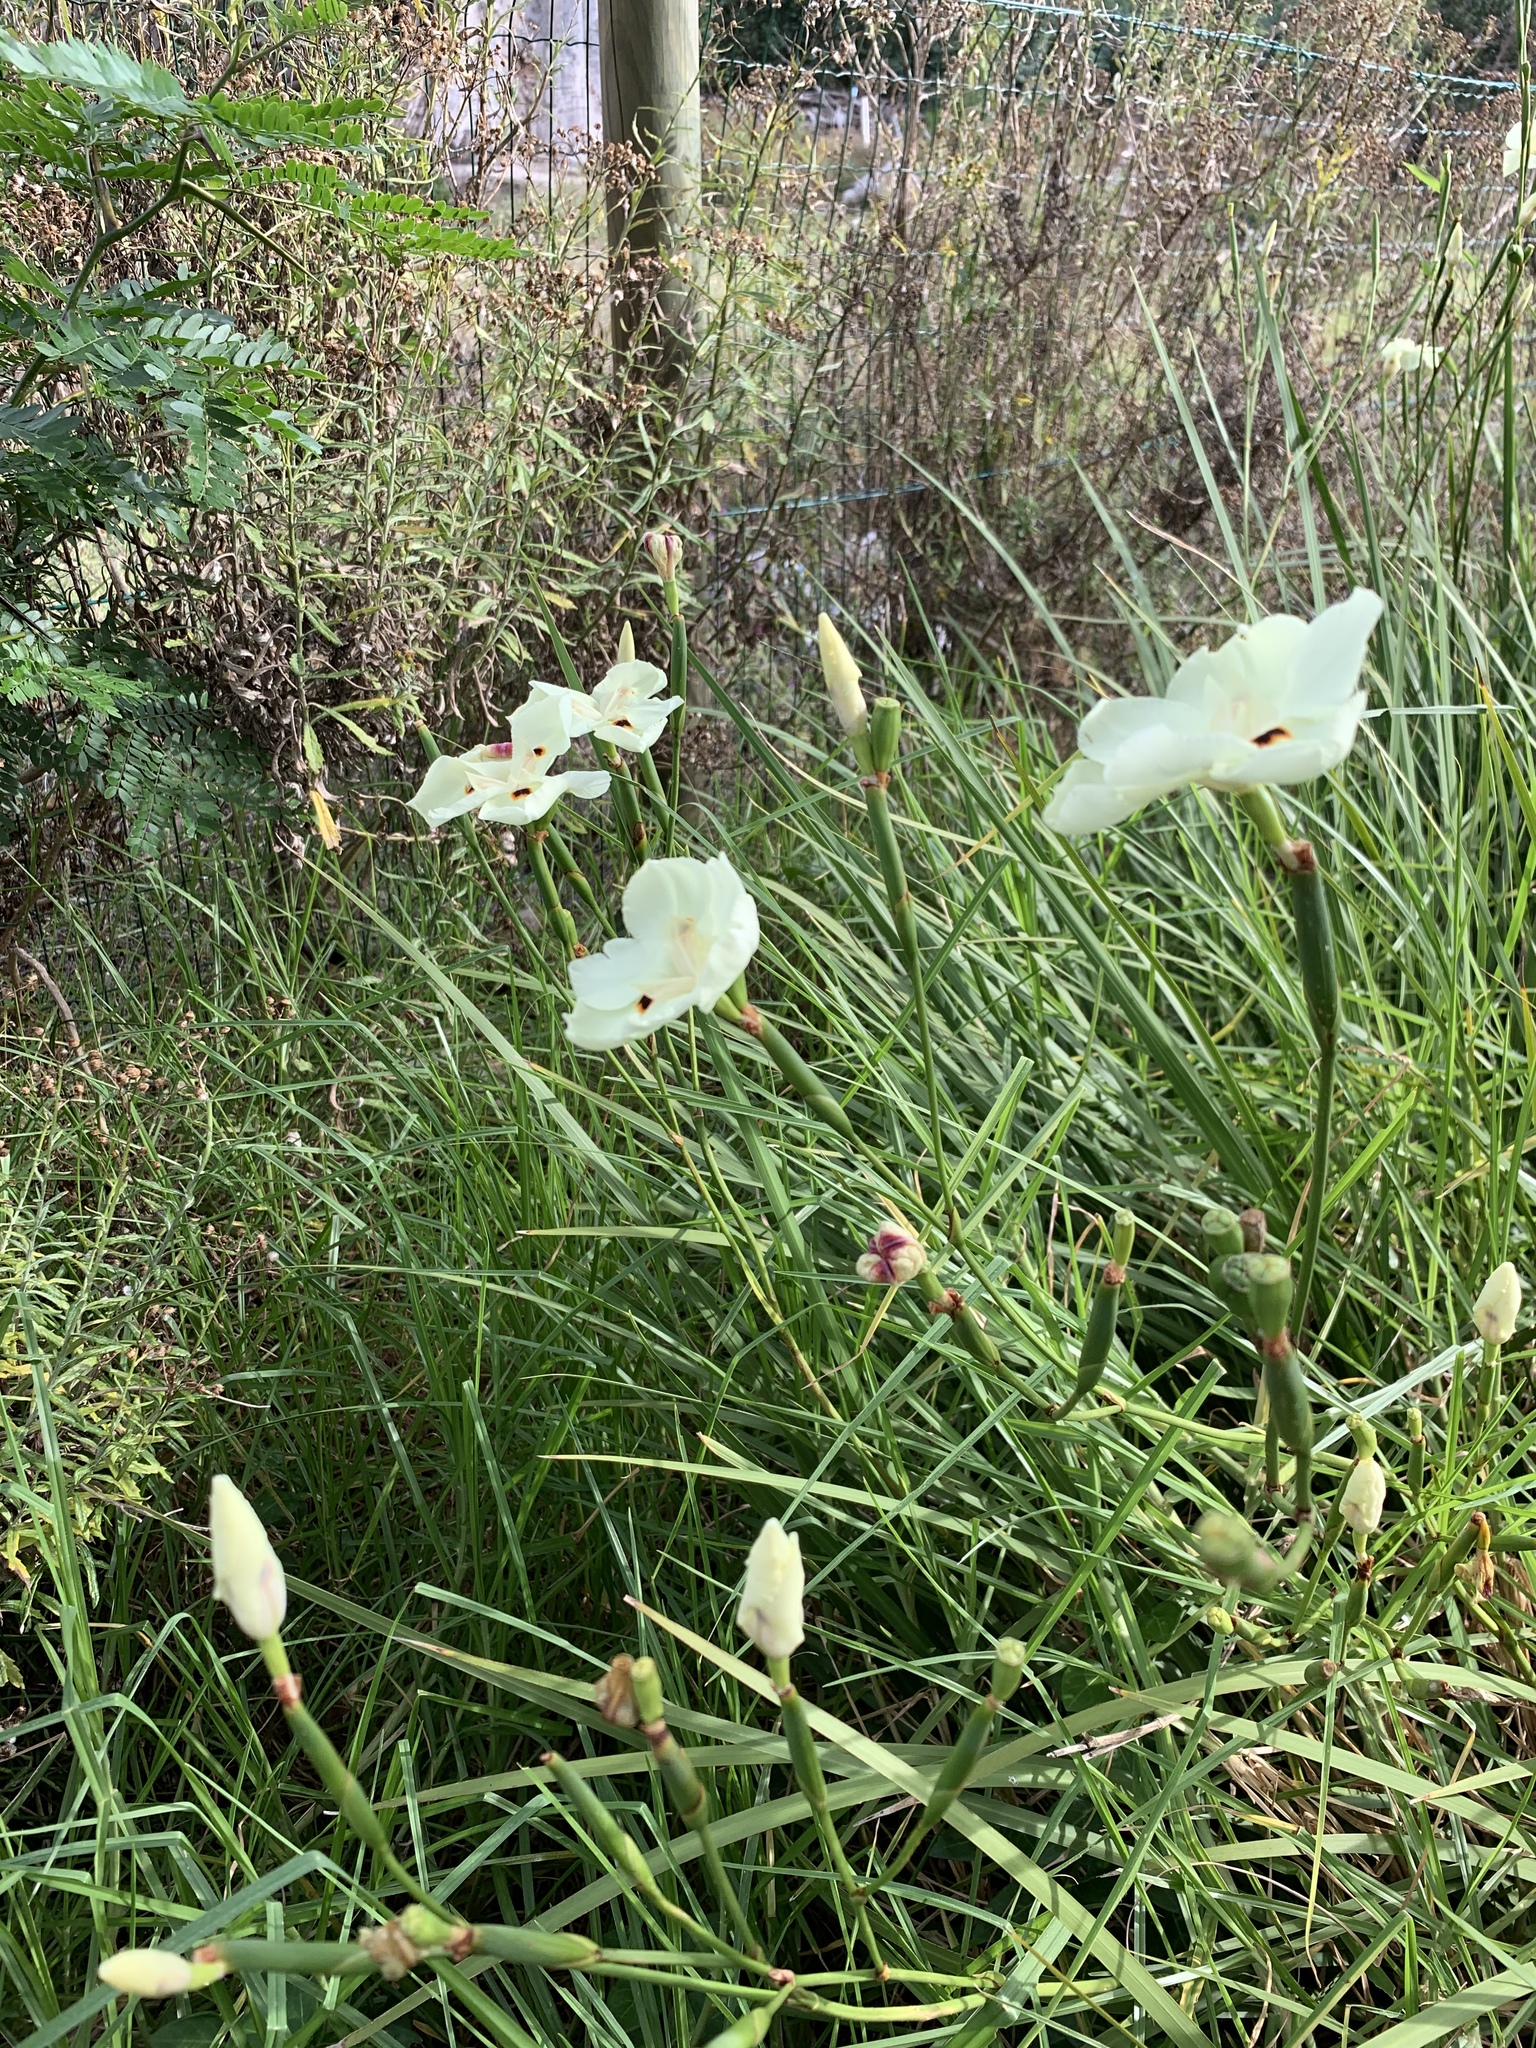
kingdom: Plantae
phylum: Tracheophyta
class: Liliopsida
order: Asparagales
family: Iridaceae
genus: Dietes
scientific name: Dietes bicolor
